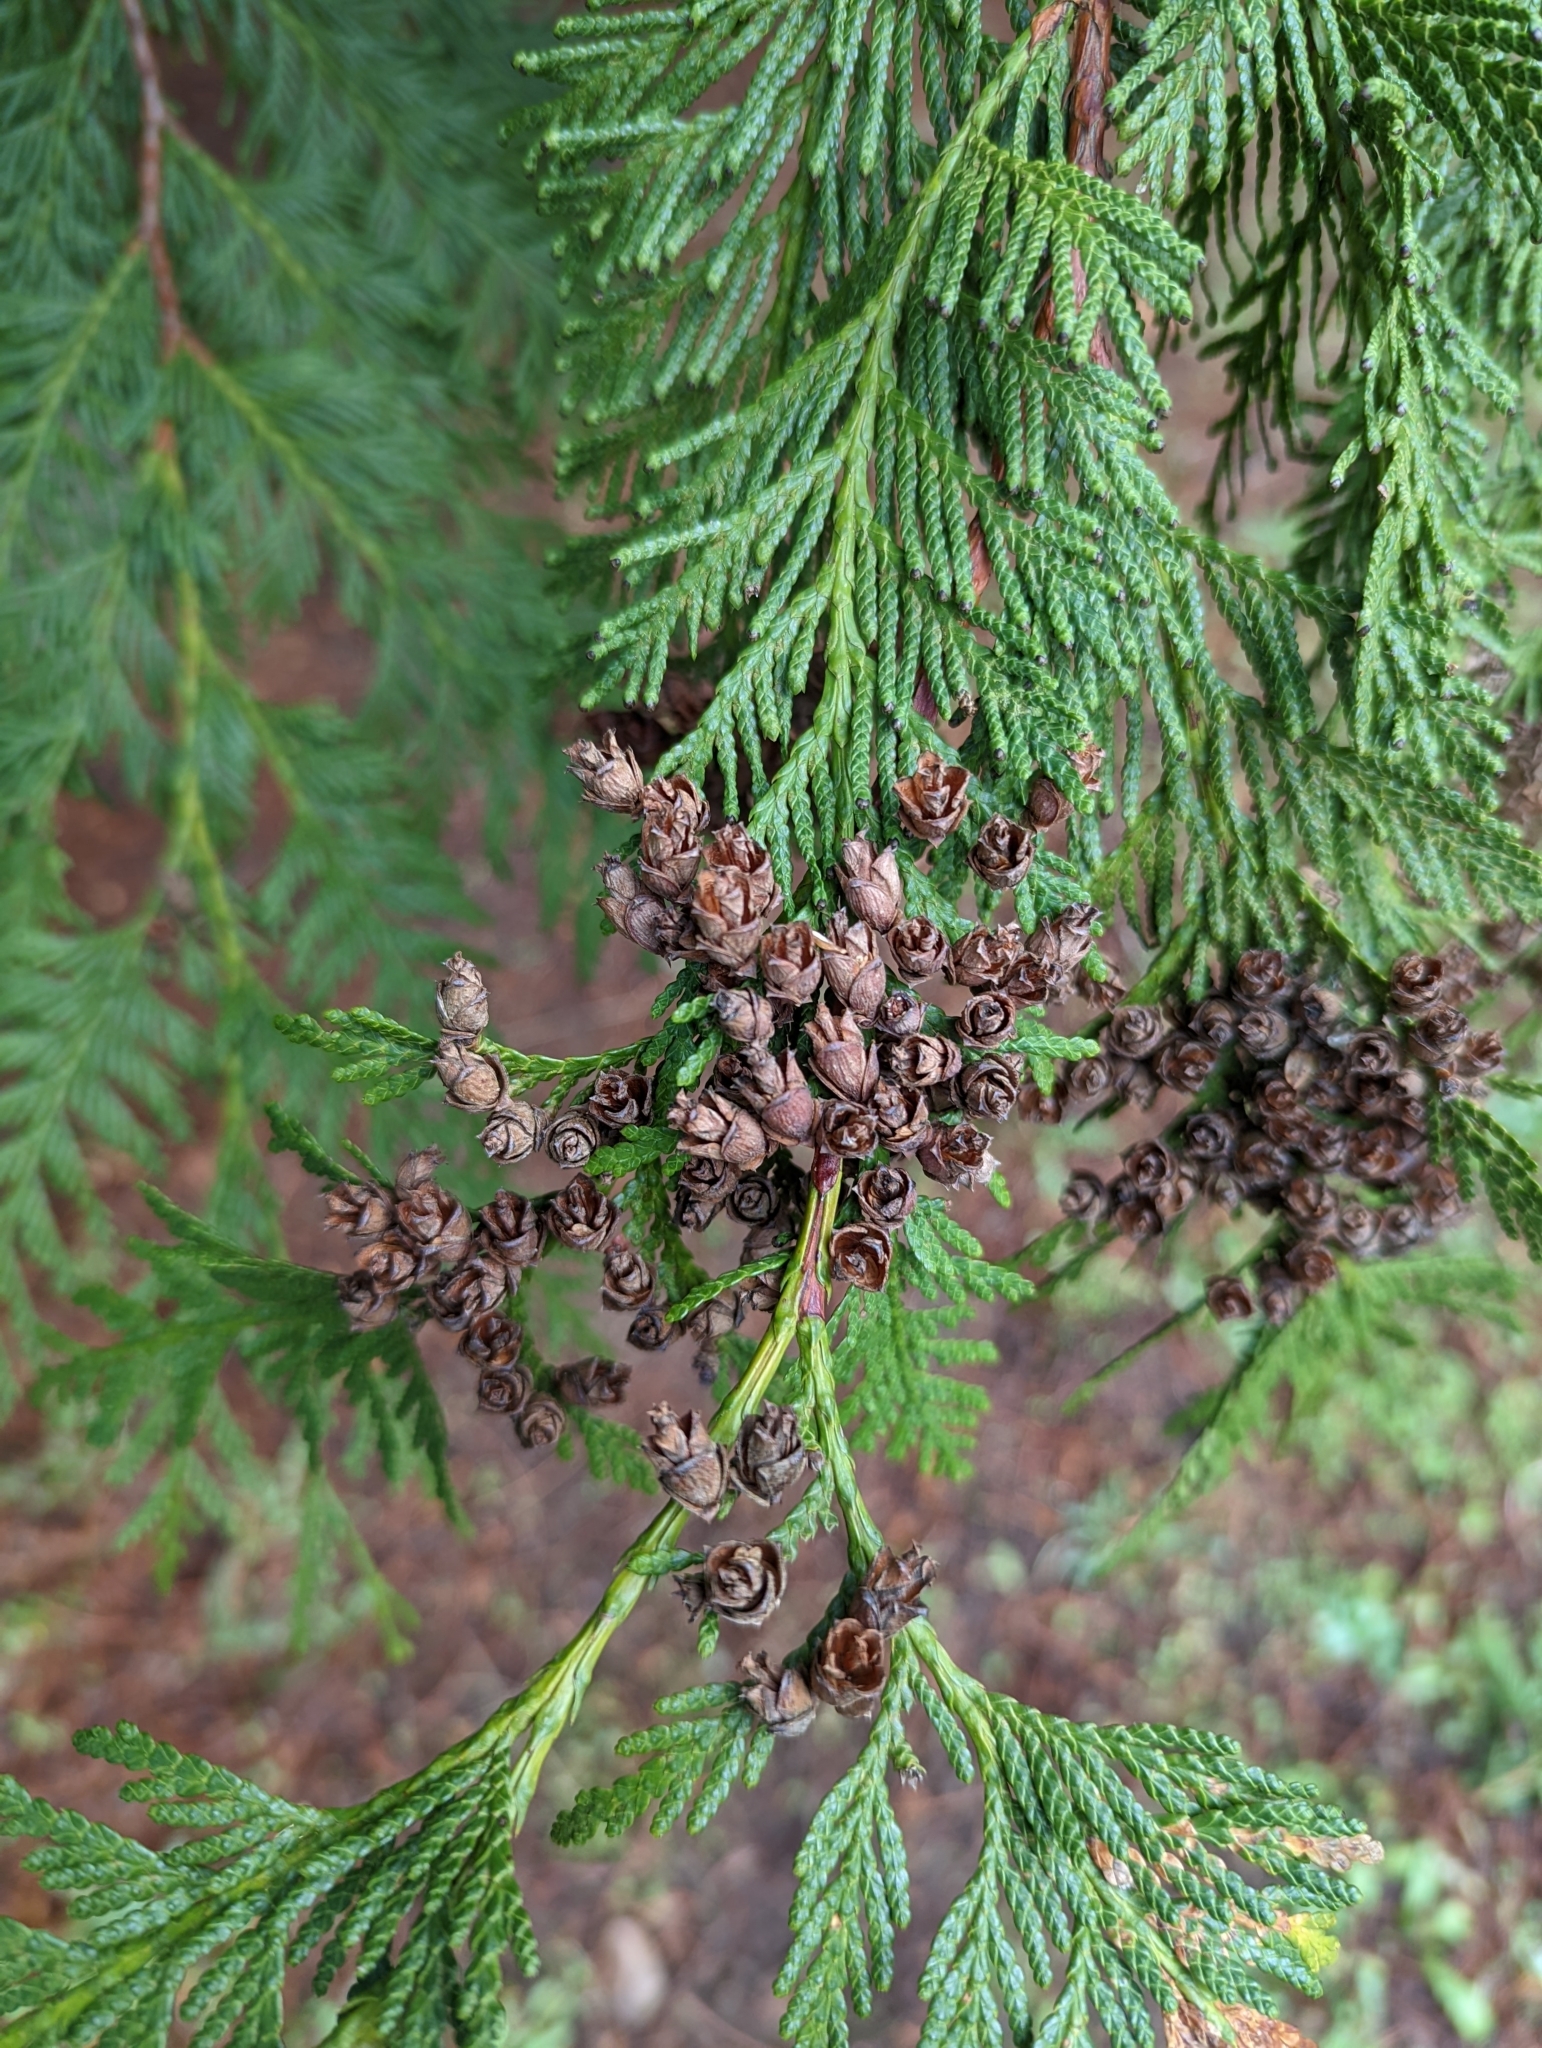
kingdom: Plantae
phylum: Tracheophyta
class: Pinopsida
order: Pinales
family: Cupressaceae
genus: Thuja
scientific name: Thuja plicata
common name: Western red-cedar
